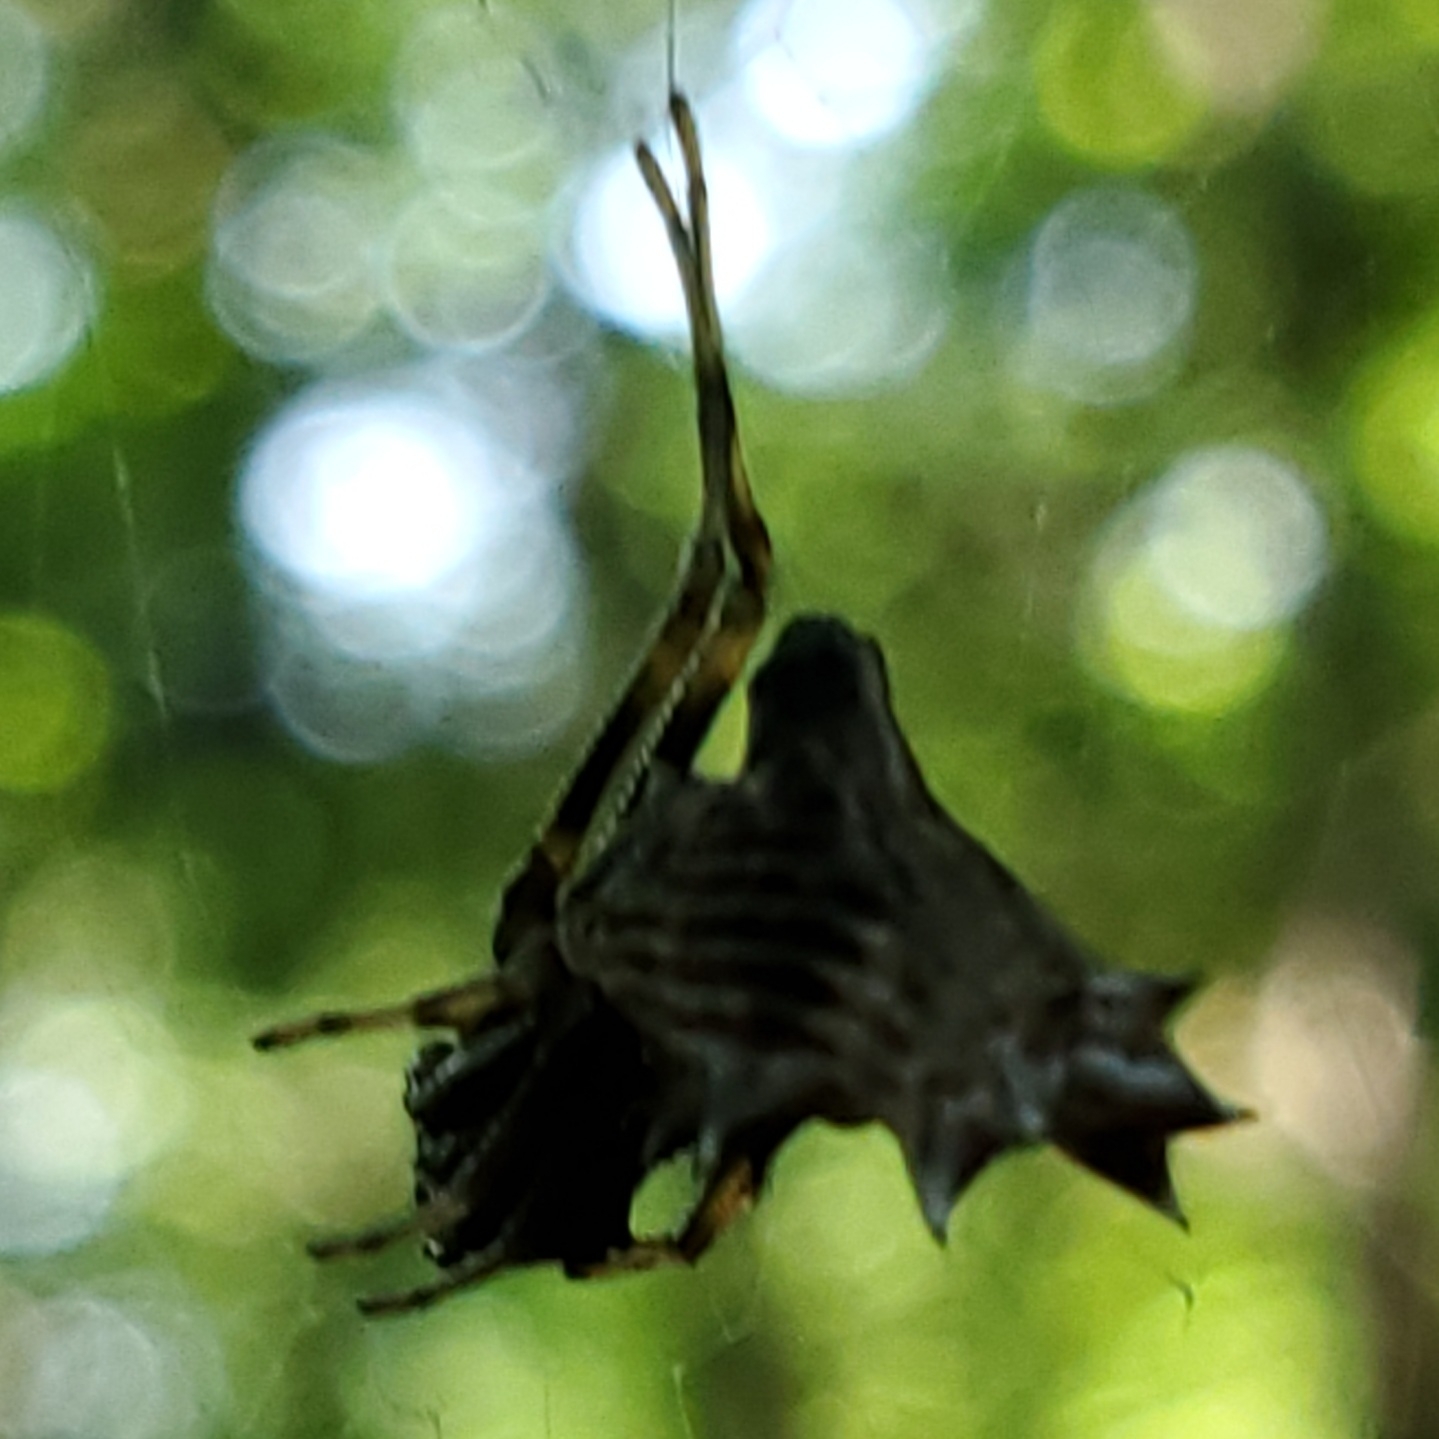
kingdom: Animalia
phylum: Arthropoda
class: Arachnida
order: Araneae
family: Araneidae
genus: Micrathena
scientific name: Micrathena gracilis
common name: Orb weavers
